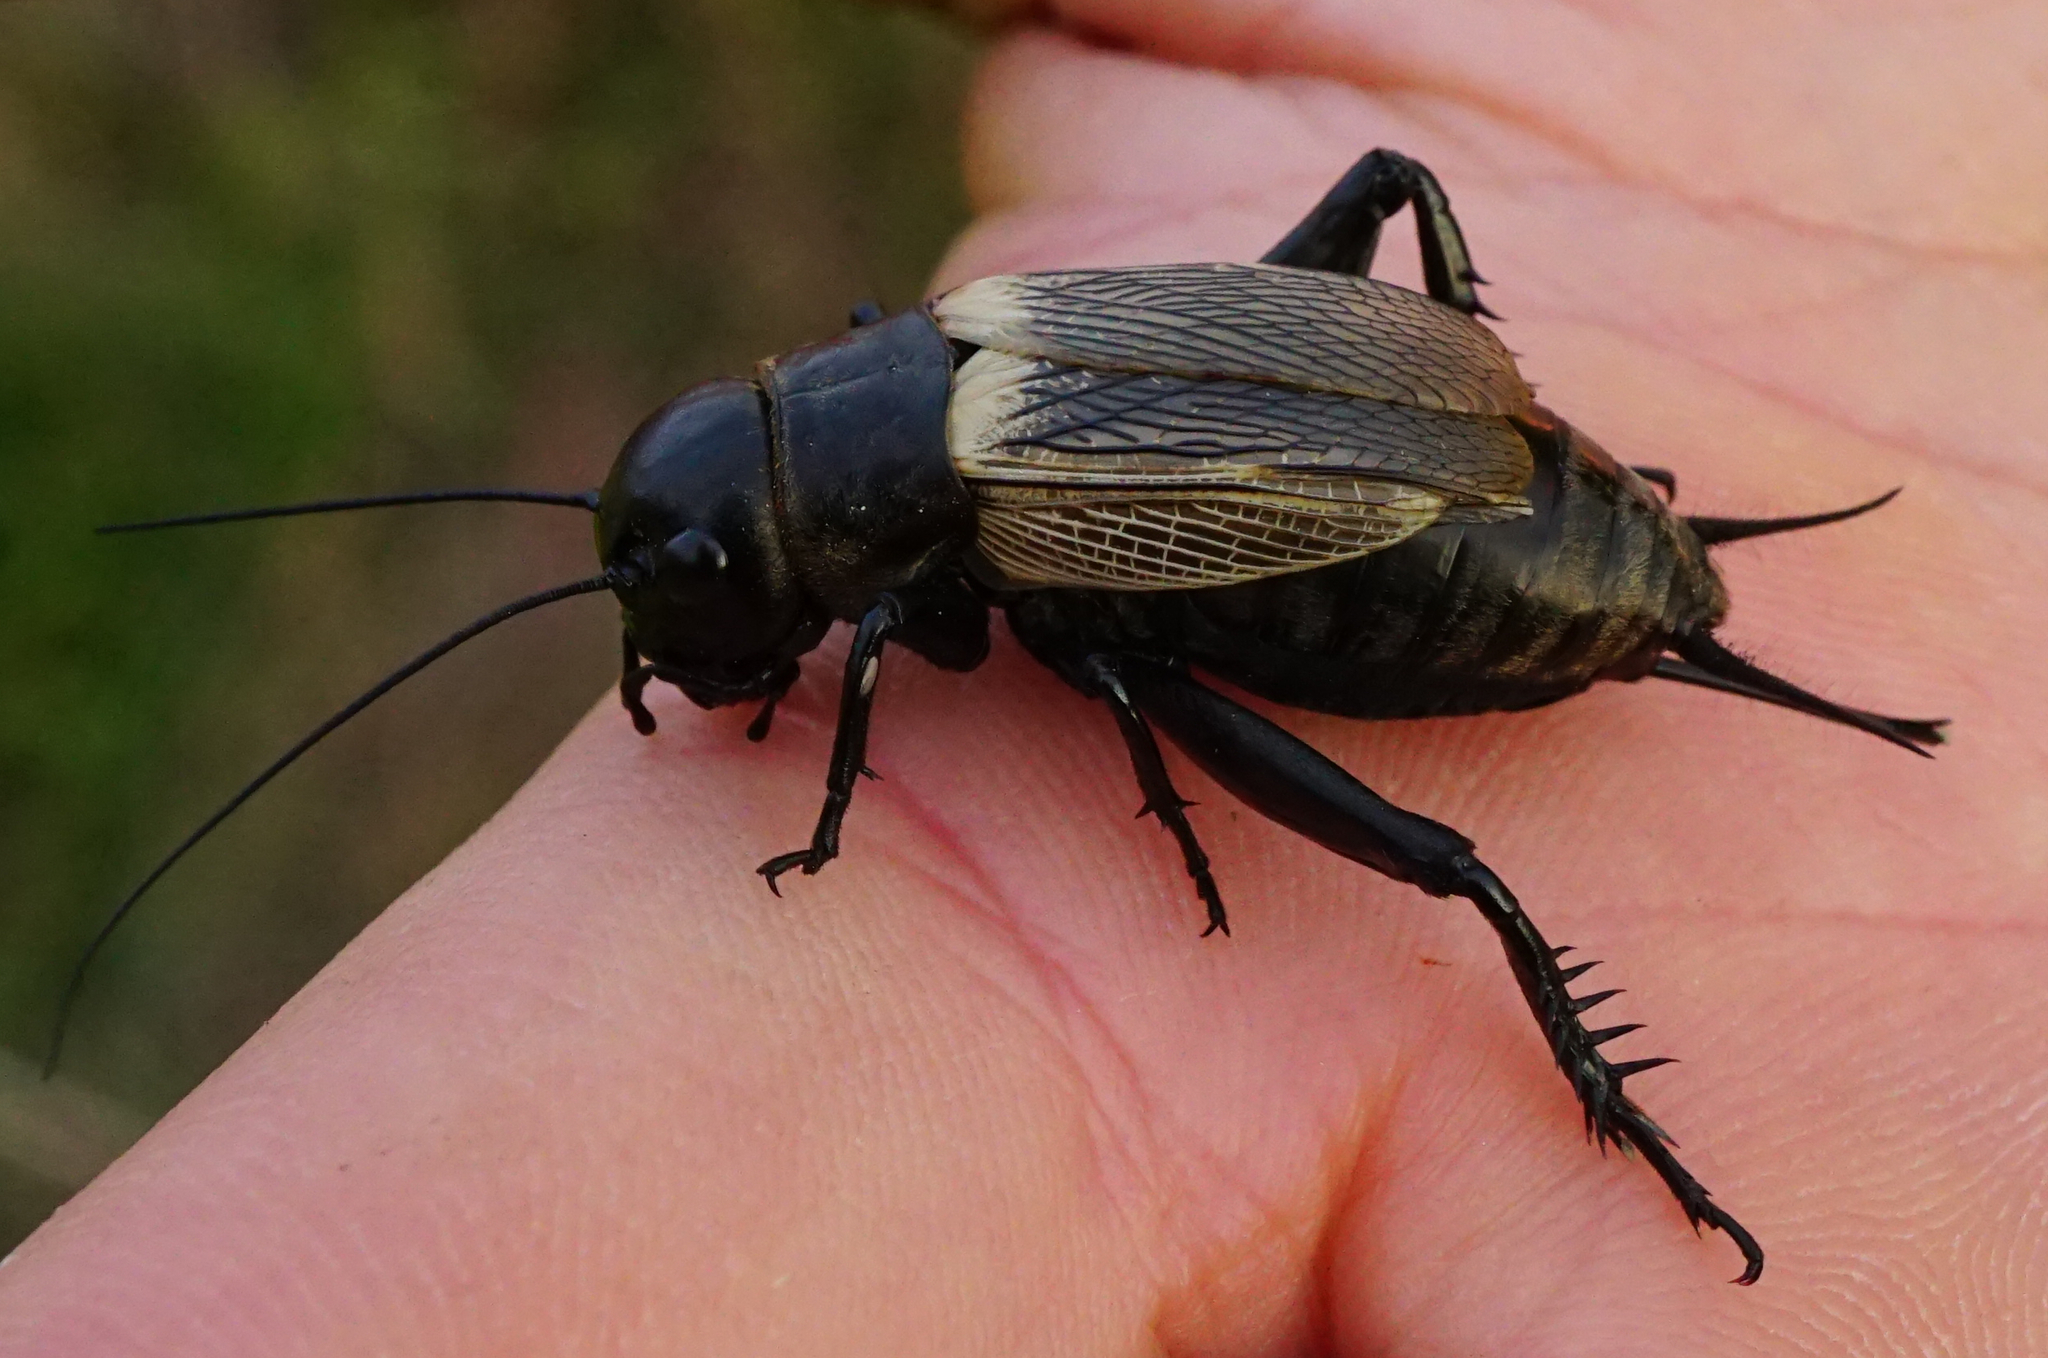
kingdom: Animalia
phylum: Arthropoda
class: Insecta
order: Orthoptera
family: Gryllidae
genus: Gryllus
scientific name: Gryllus campestris
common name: Field cricket
